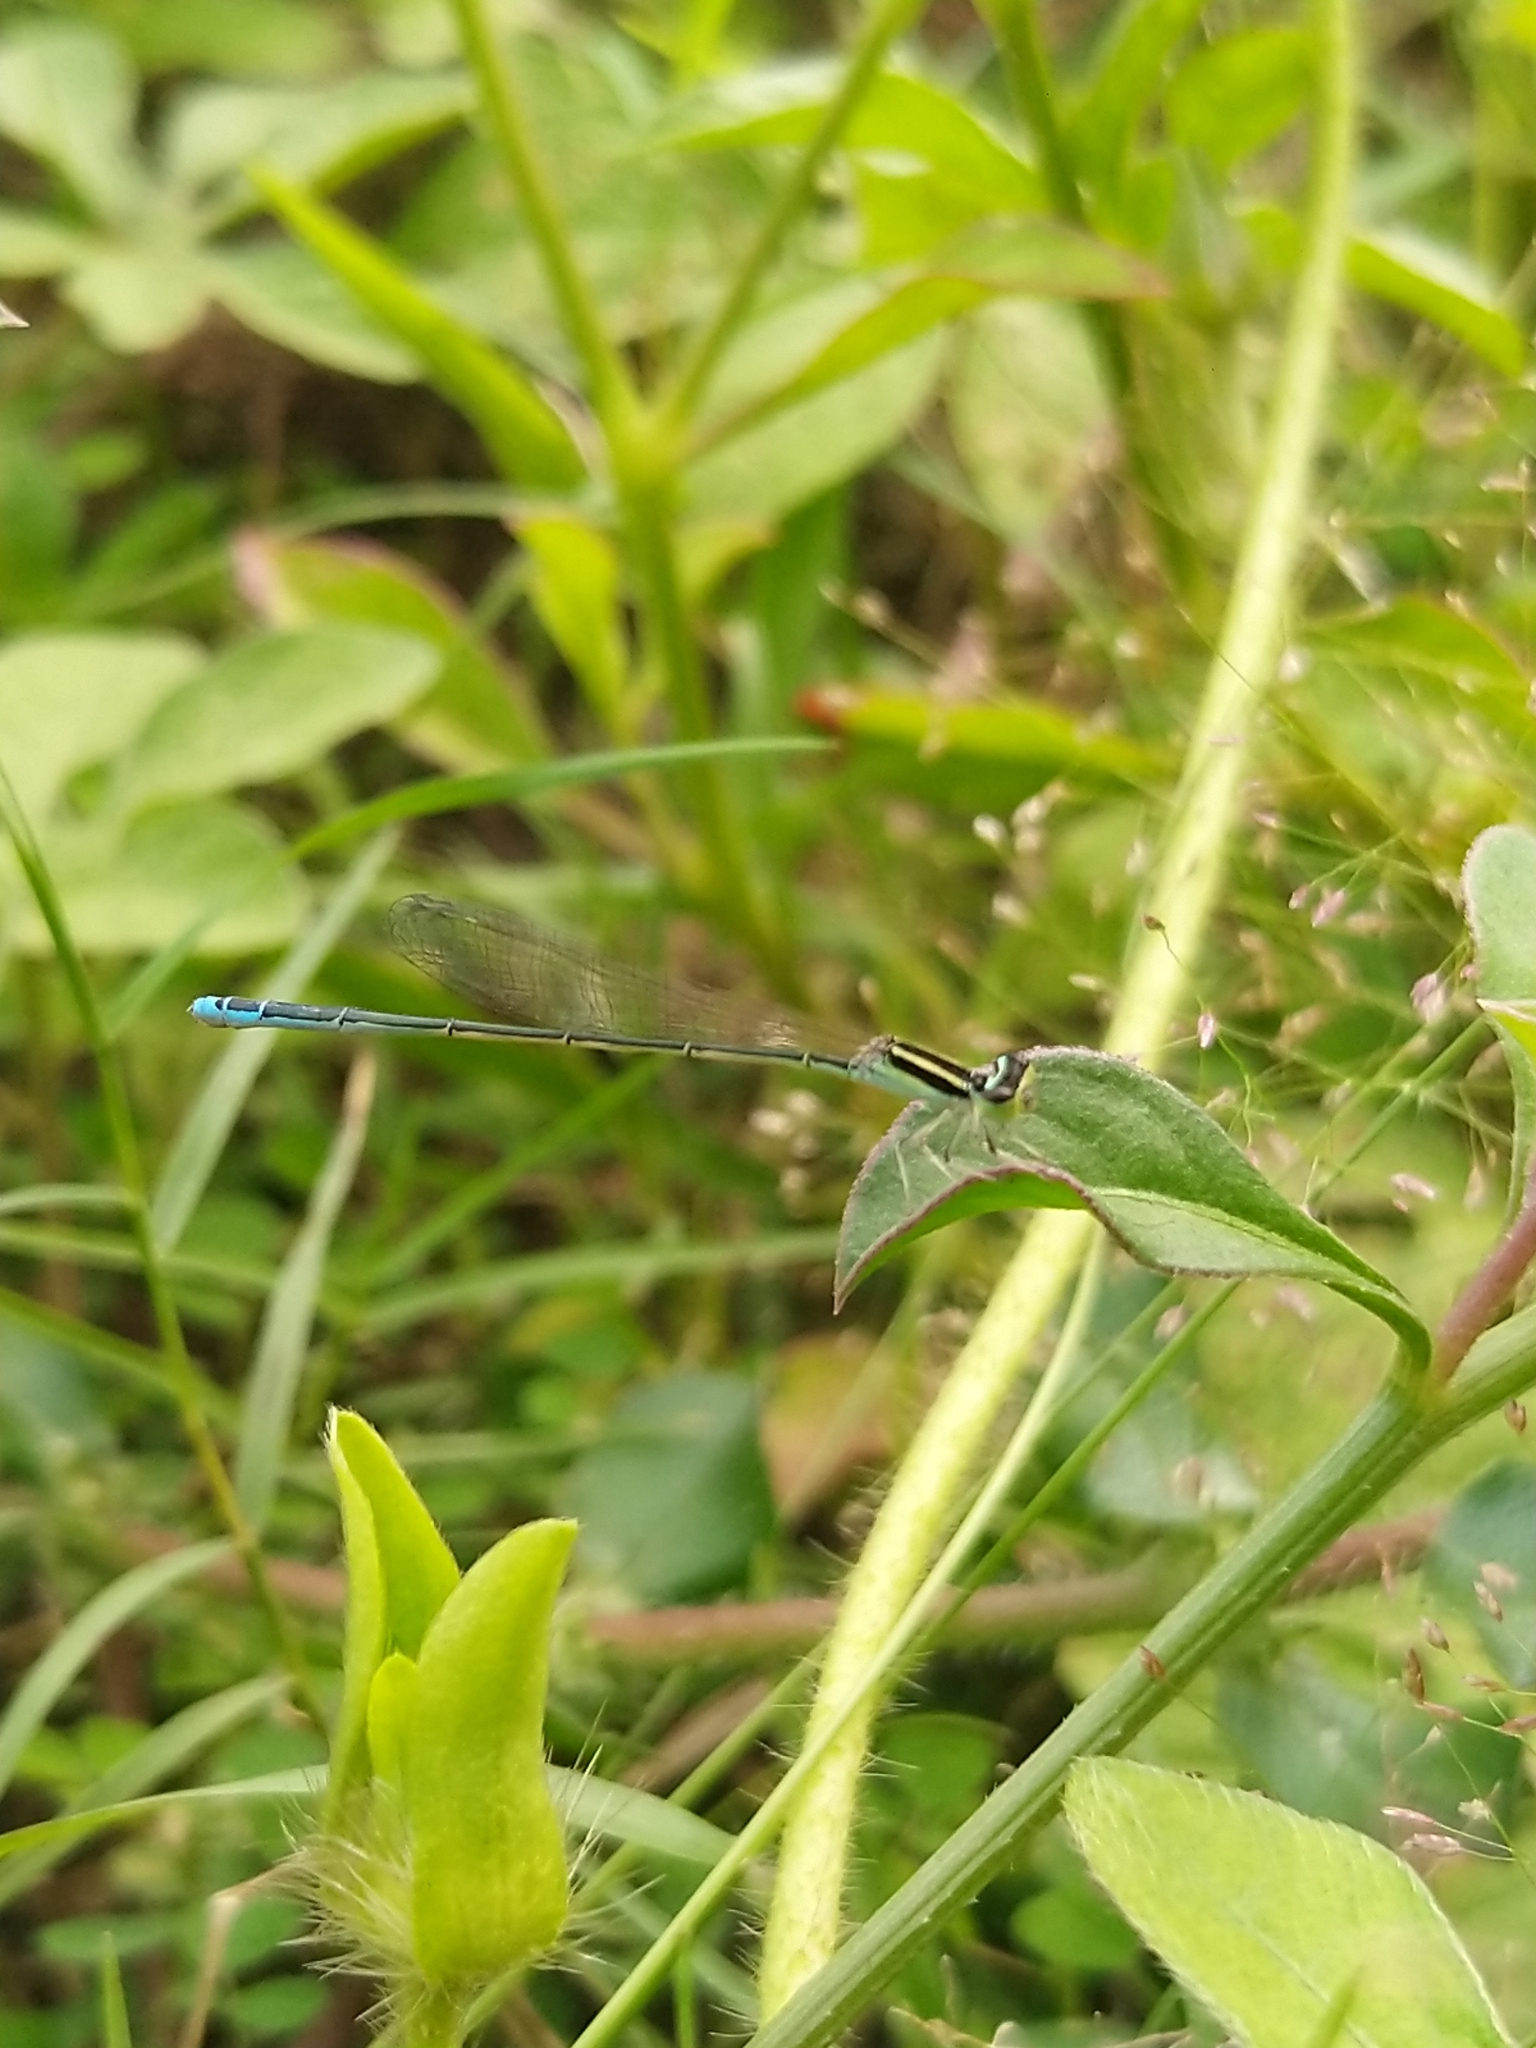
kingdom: Animalia
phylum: Arthropoda
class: Insecta
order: Odonata
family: Coenagrionidae
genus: Aciagrion
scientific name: Aciagrion occidentale
